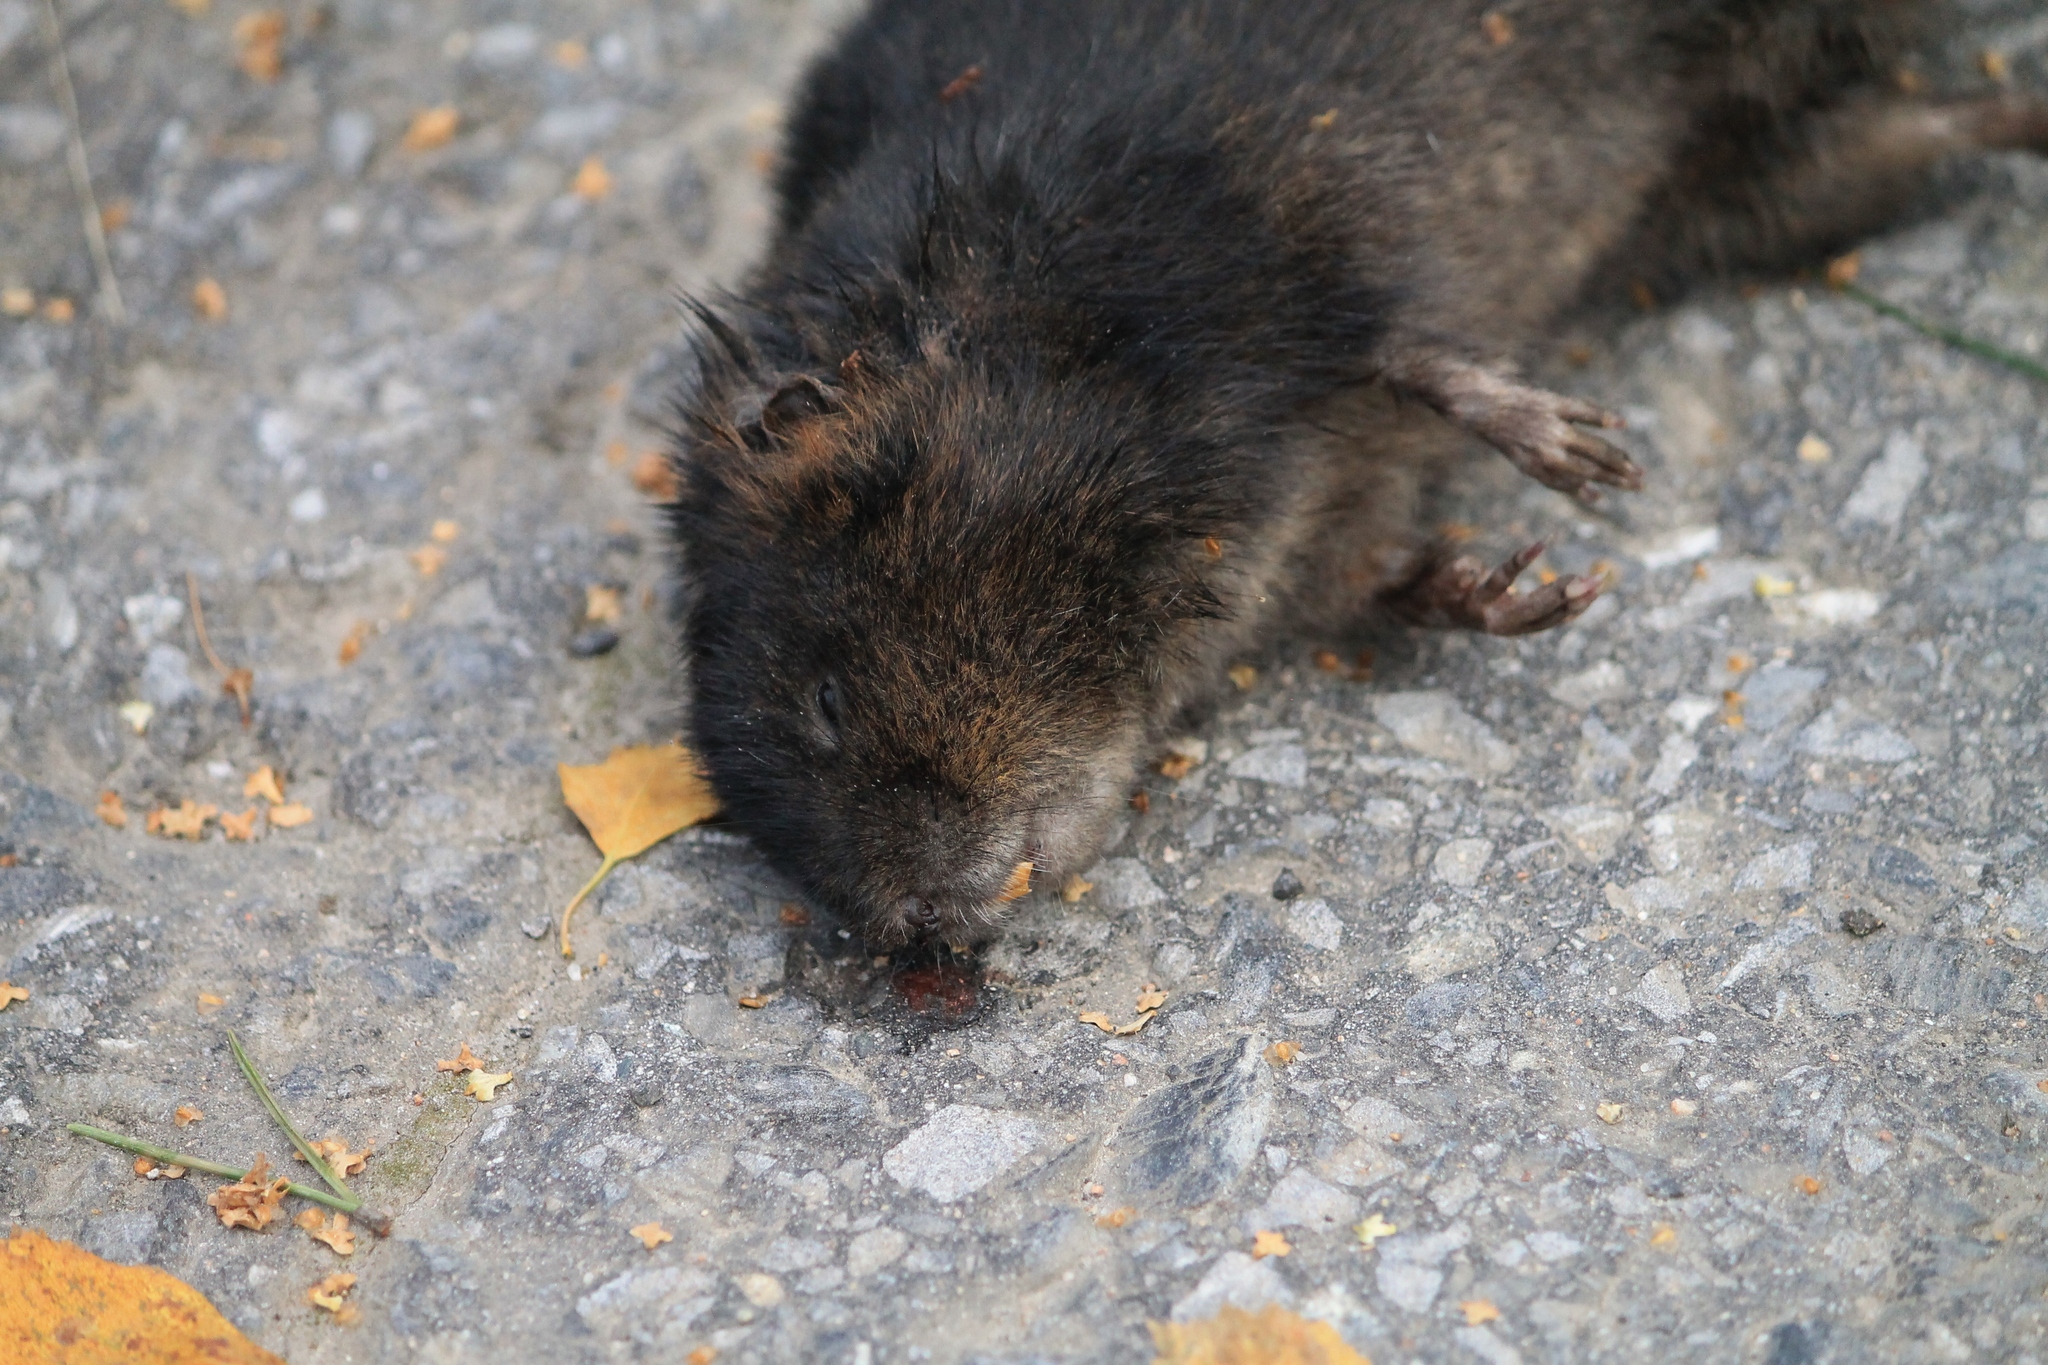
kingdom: Animalia
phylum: Chordata
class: Mammalia
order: Rodentia
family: Cricetidae
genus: Arvicola
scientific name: Arvicola amphibius
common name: European water vole
